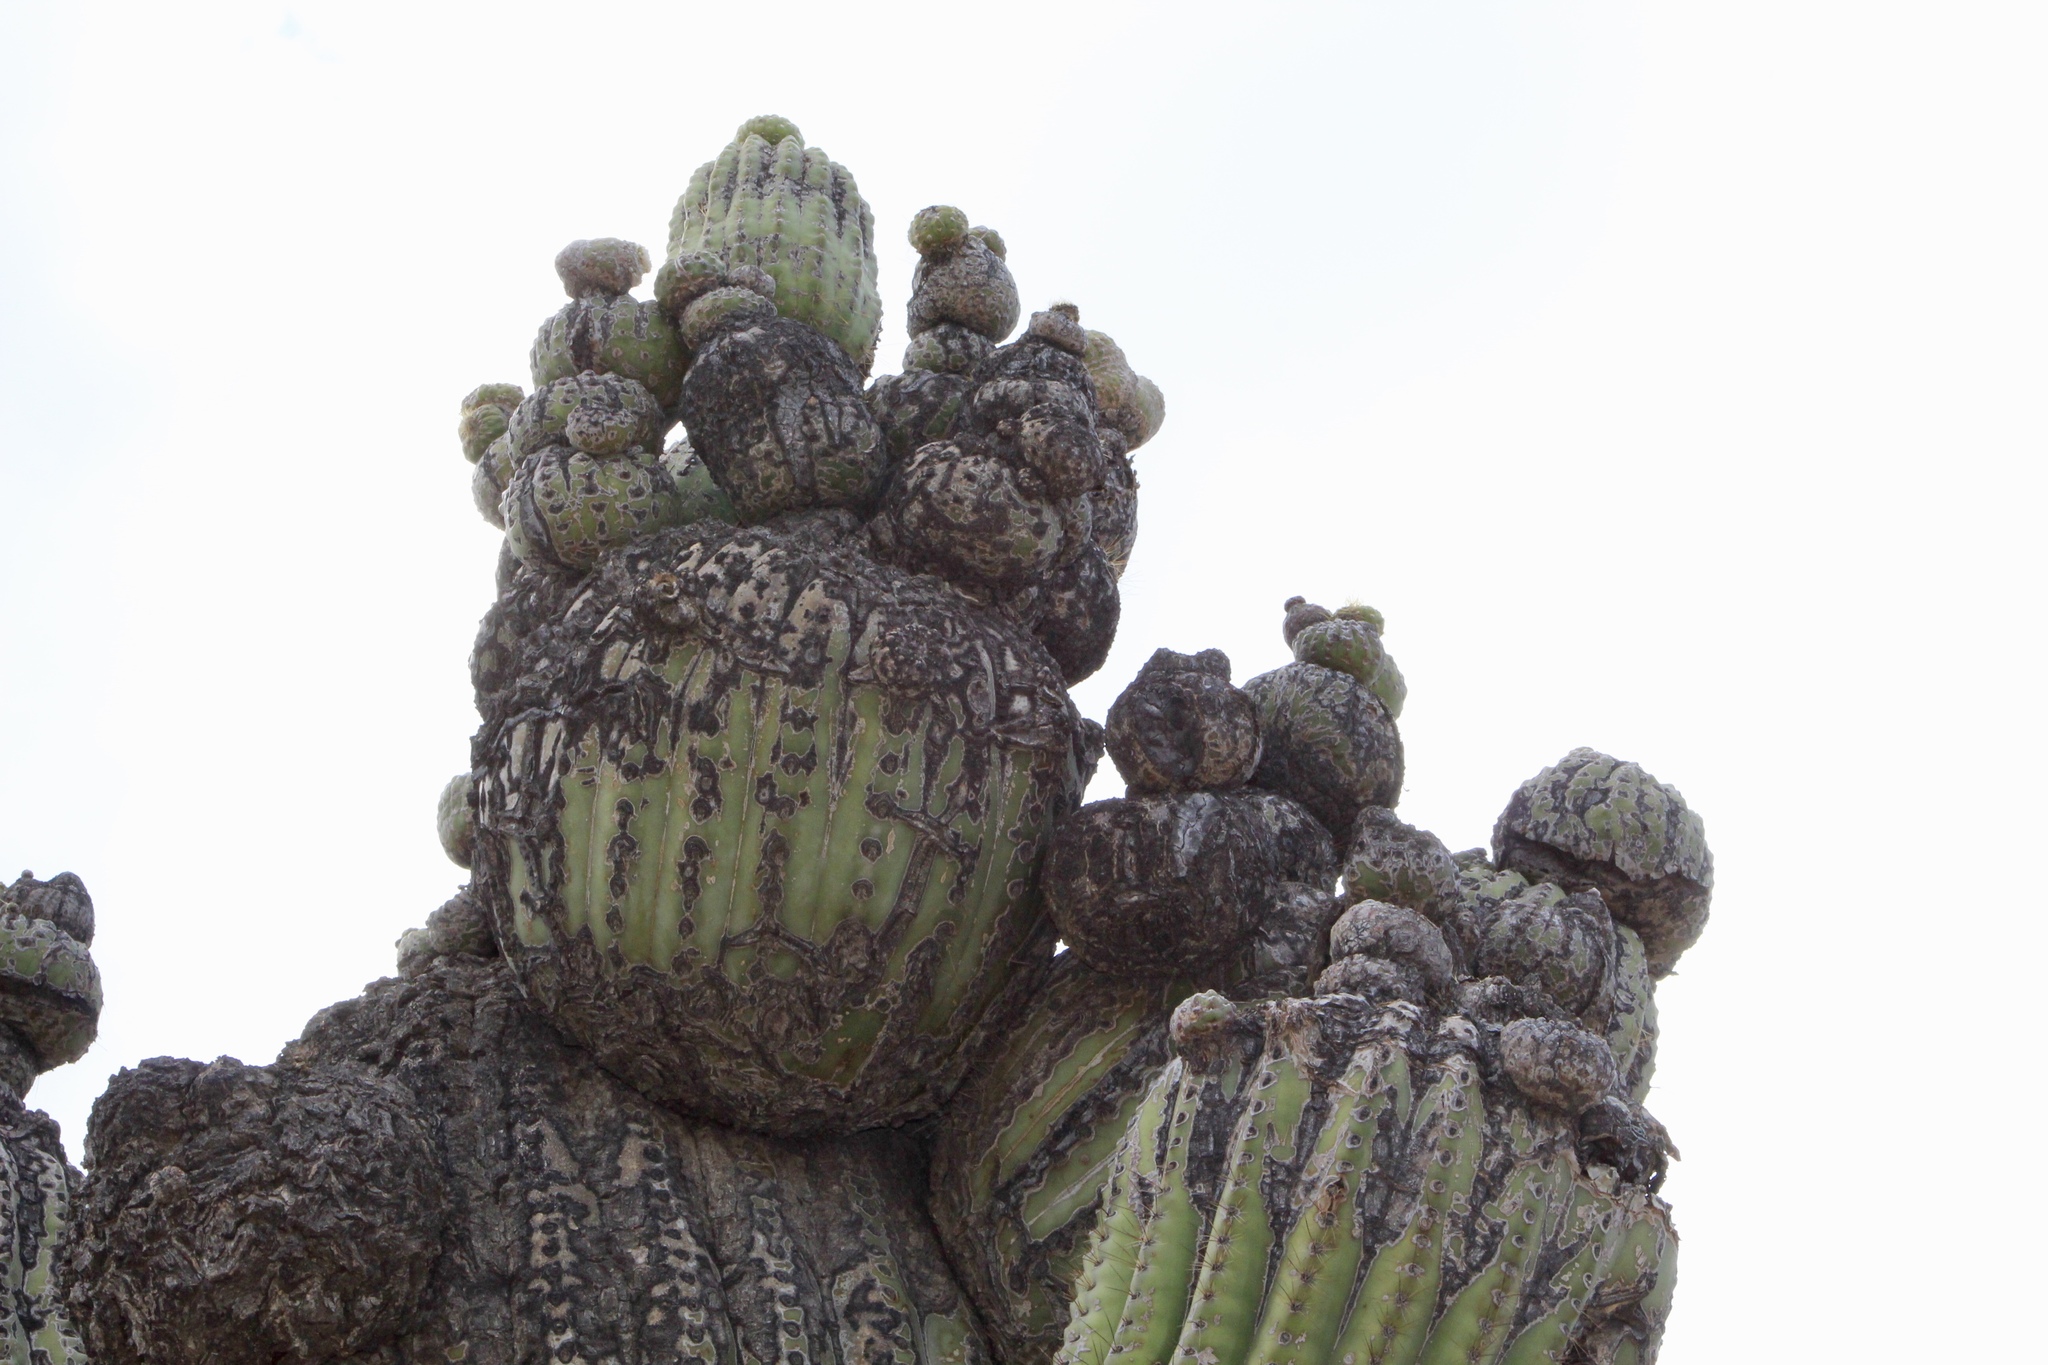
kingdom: Plantae
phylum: Tracheophyta
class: Magnoliopsida
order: Caryophyllales
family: Cactaceae
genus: Carnegiea
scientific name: Carnegiea gigantea
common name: Saguaro
